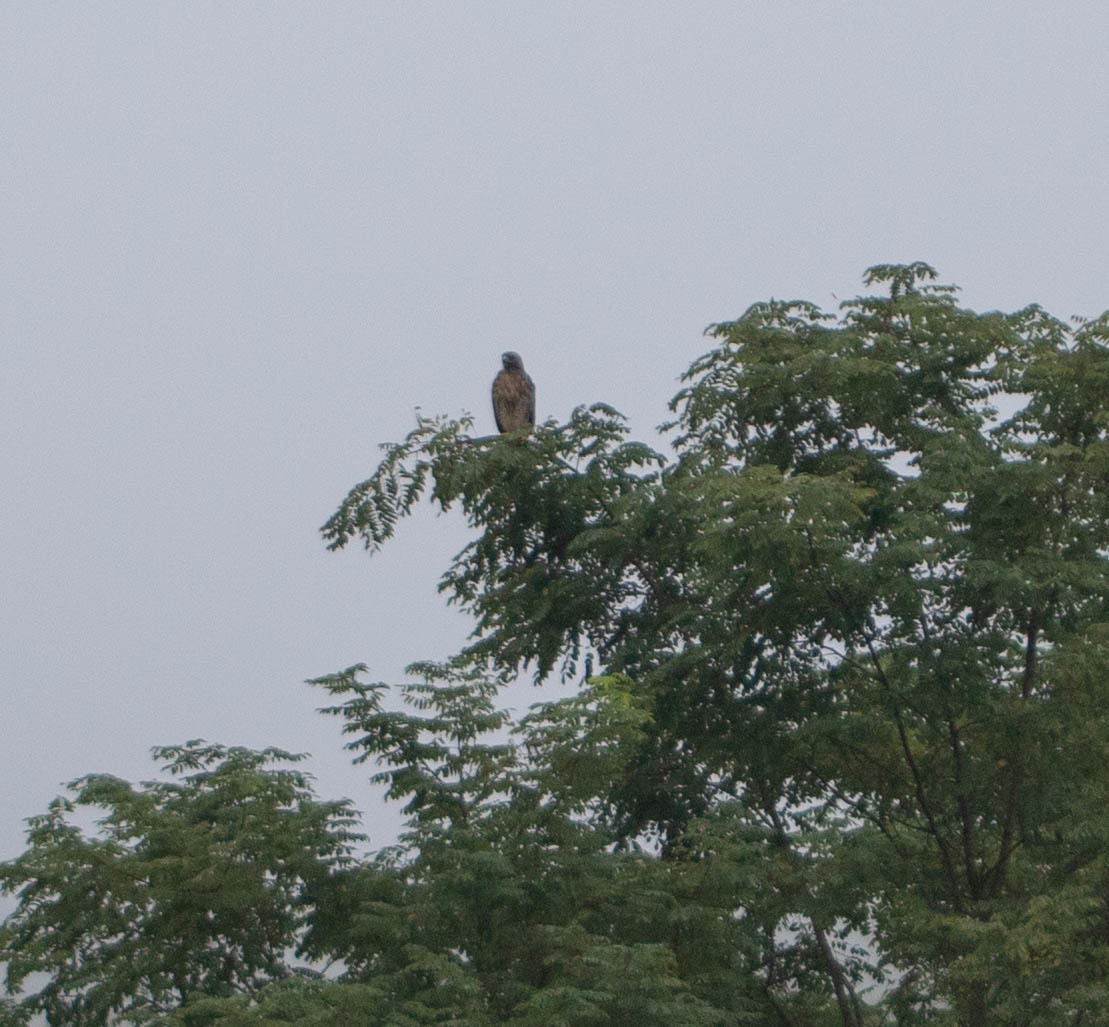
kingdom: Animalia
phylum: Chordata
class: Aves
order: Accipitriformes
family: Accipitridae
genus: Buteo
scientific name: Buteo lineatus
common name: Red-shouldered hawk
